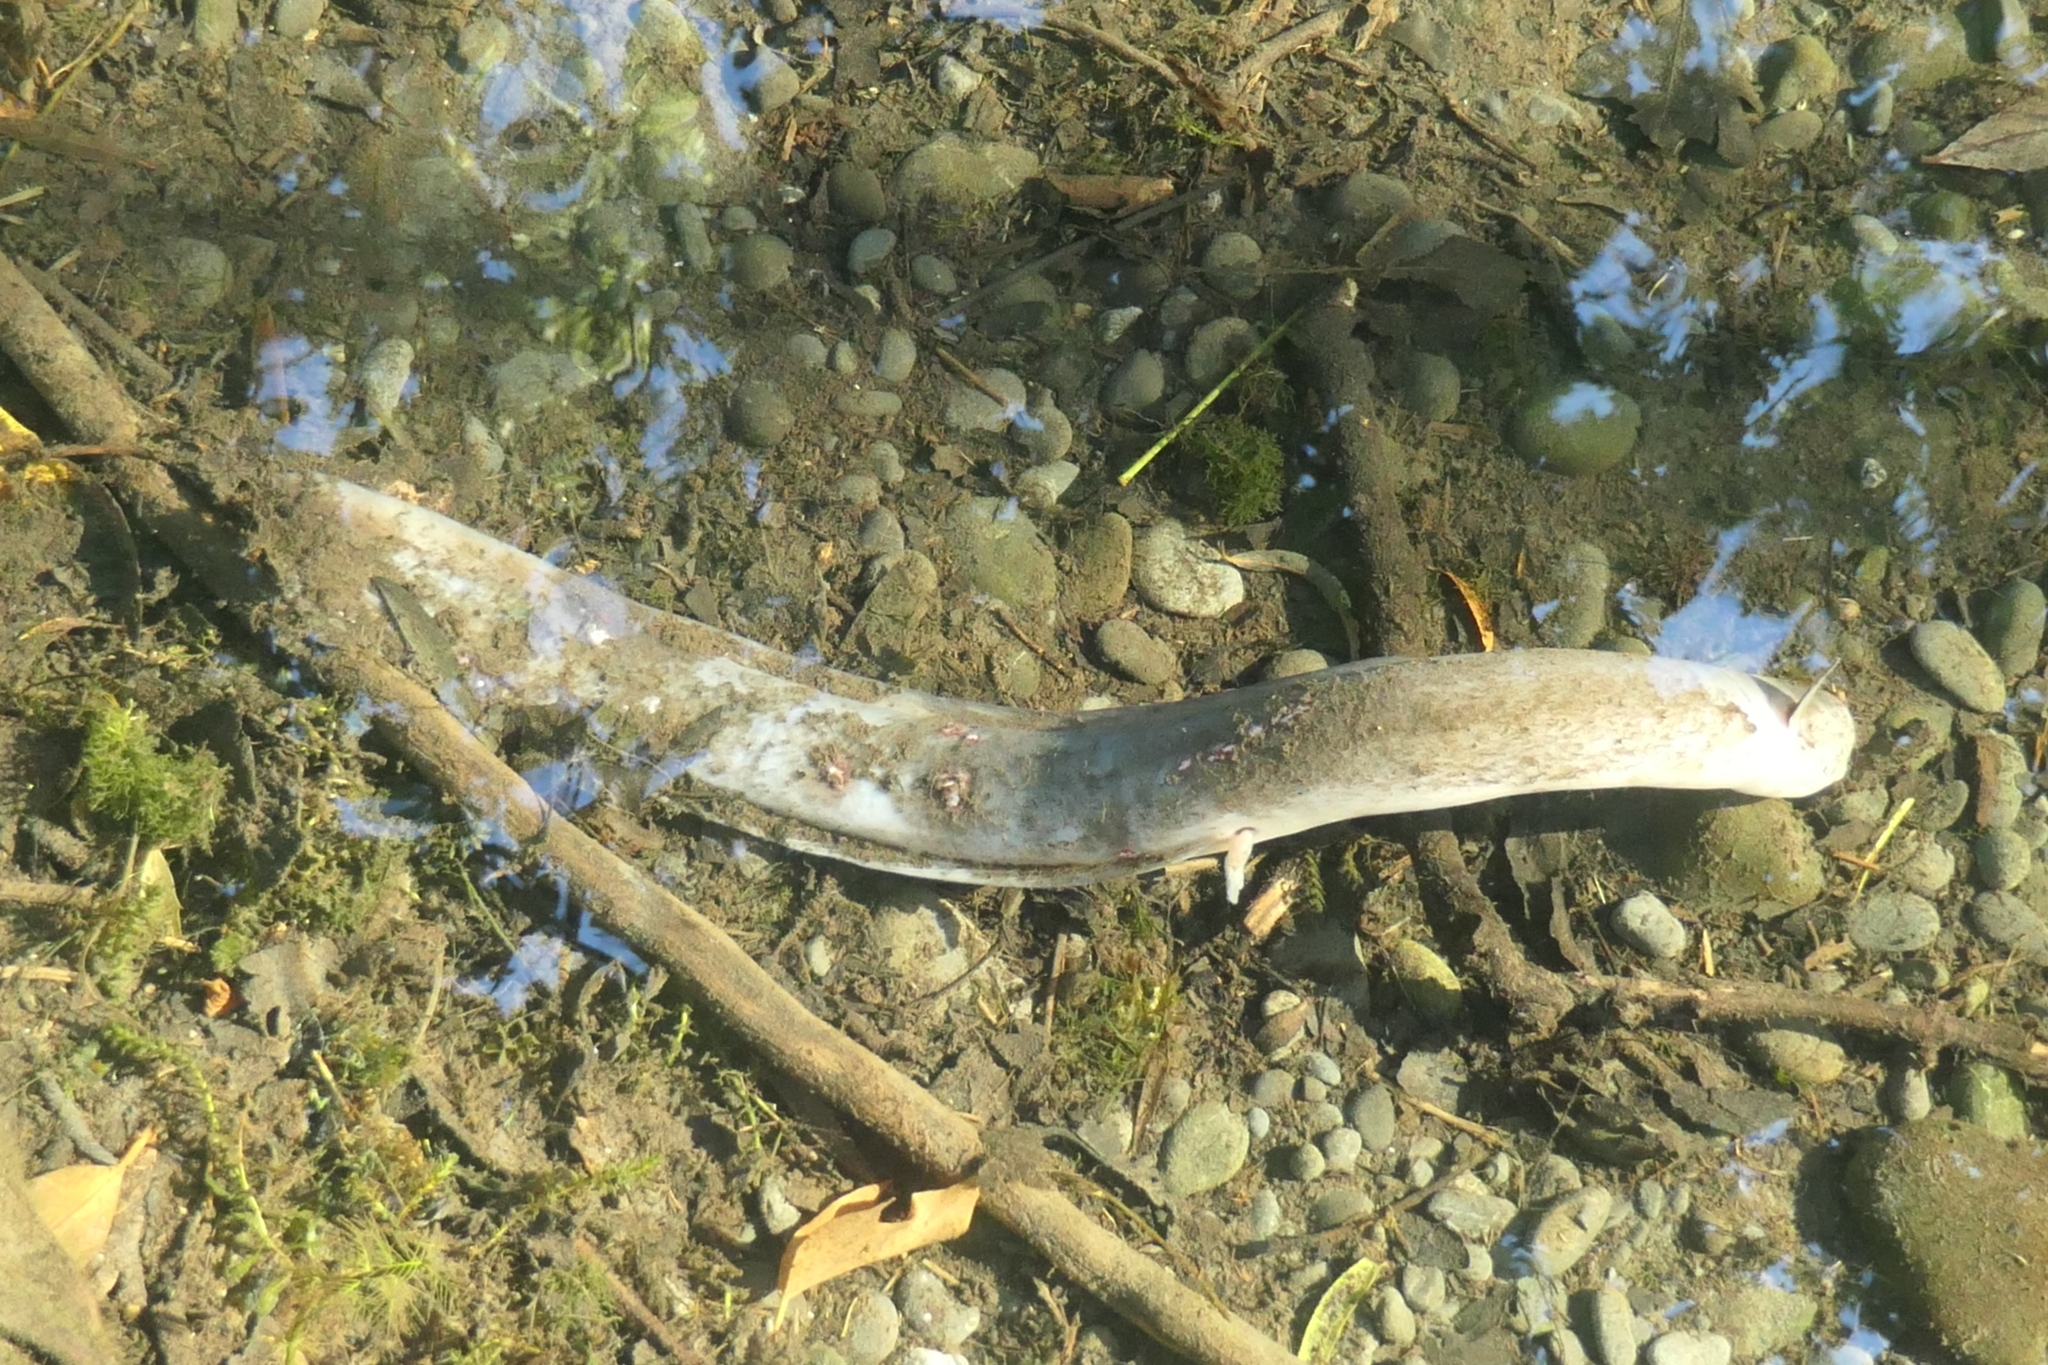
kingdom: Animalia
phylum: Chordata
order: Anguilliformes
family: Anguillidae
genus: Anguilla
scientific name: Anguilla dieffenbachii
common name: New zealand longfin eel
